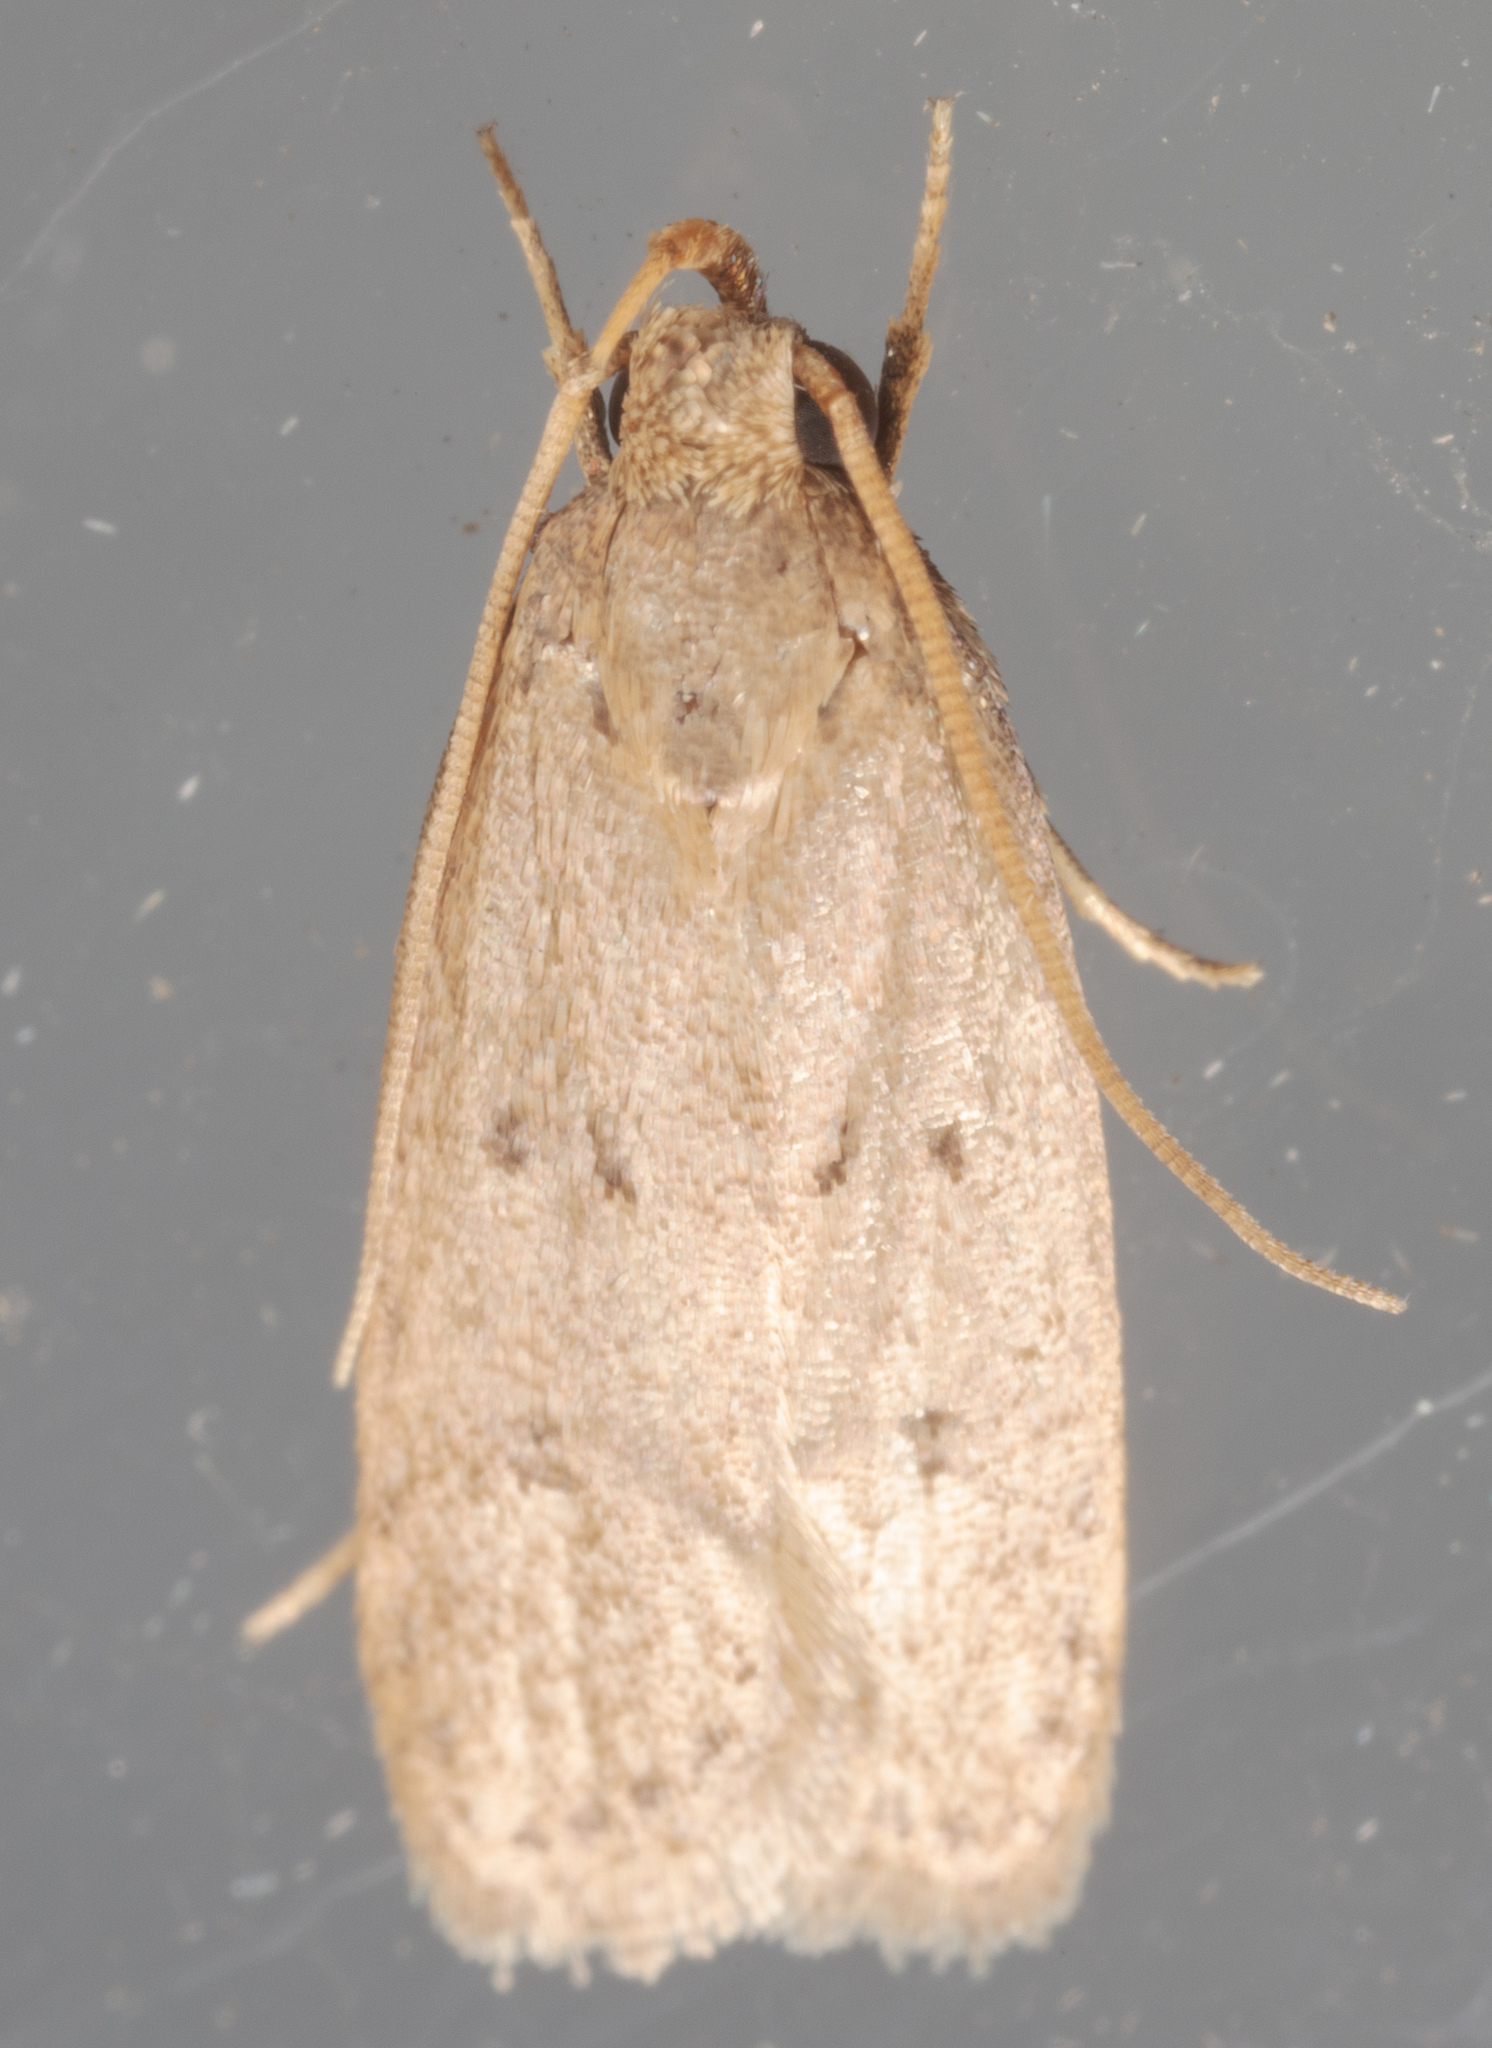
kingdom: Animalia
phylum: Arthropoda
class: Insecta
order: Lepidoptera
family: Autostichidae
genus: Autosticha
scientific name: Autosticha kyotensis
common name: Kyoto moth
